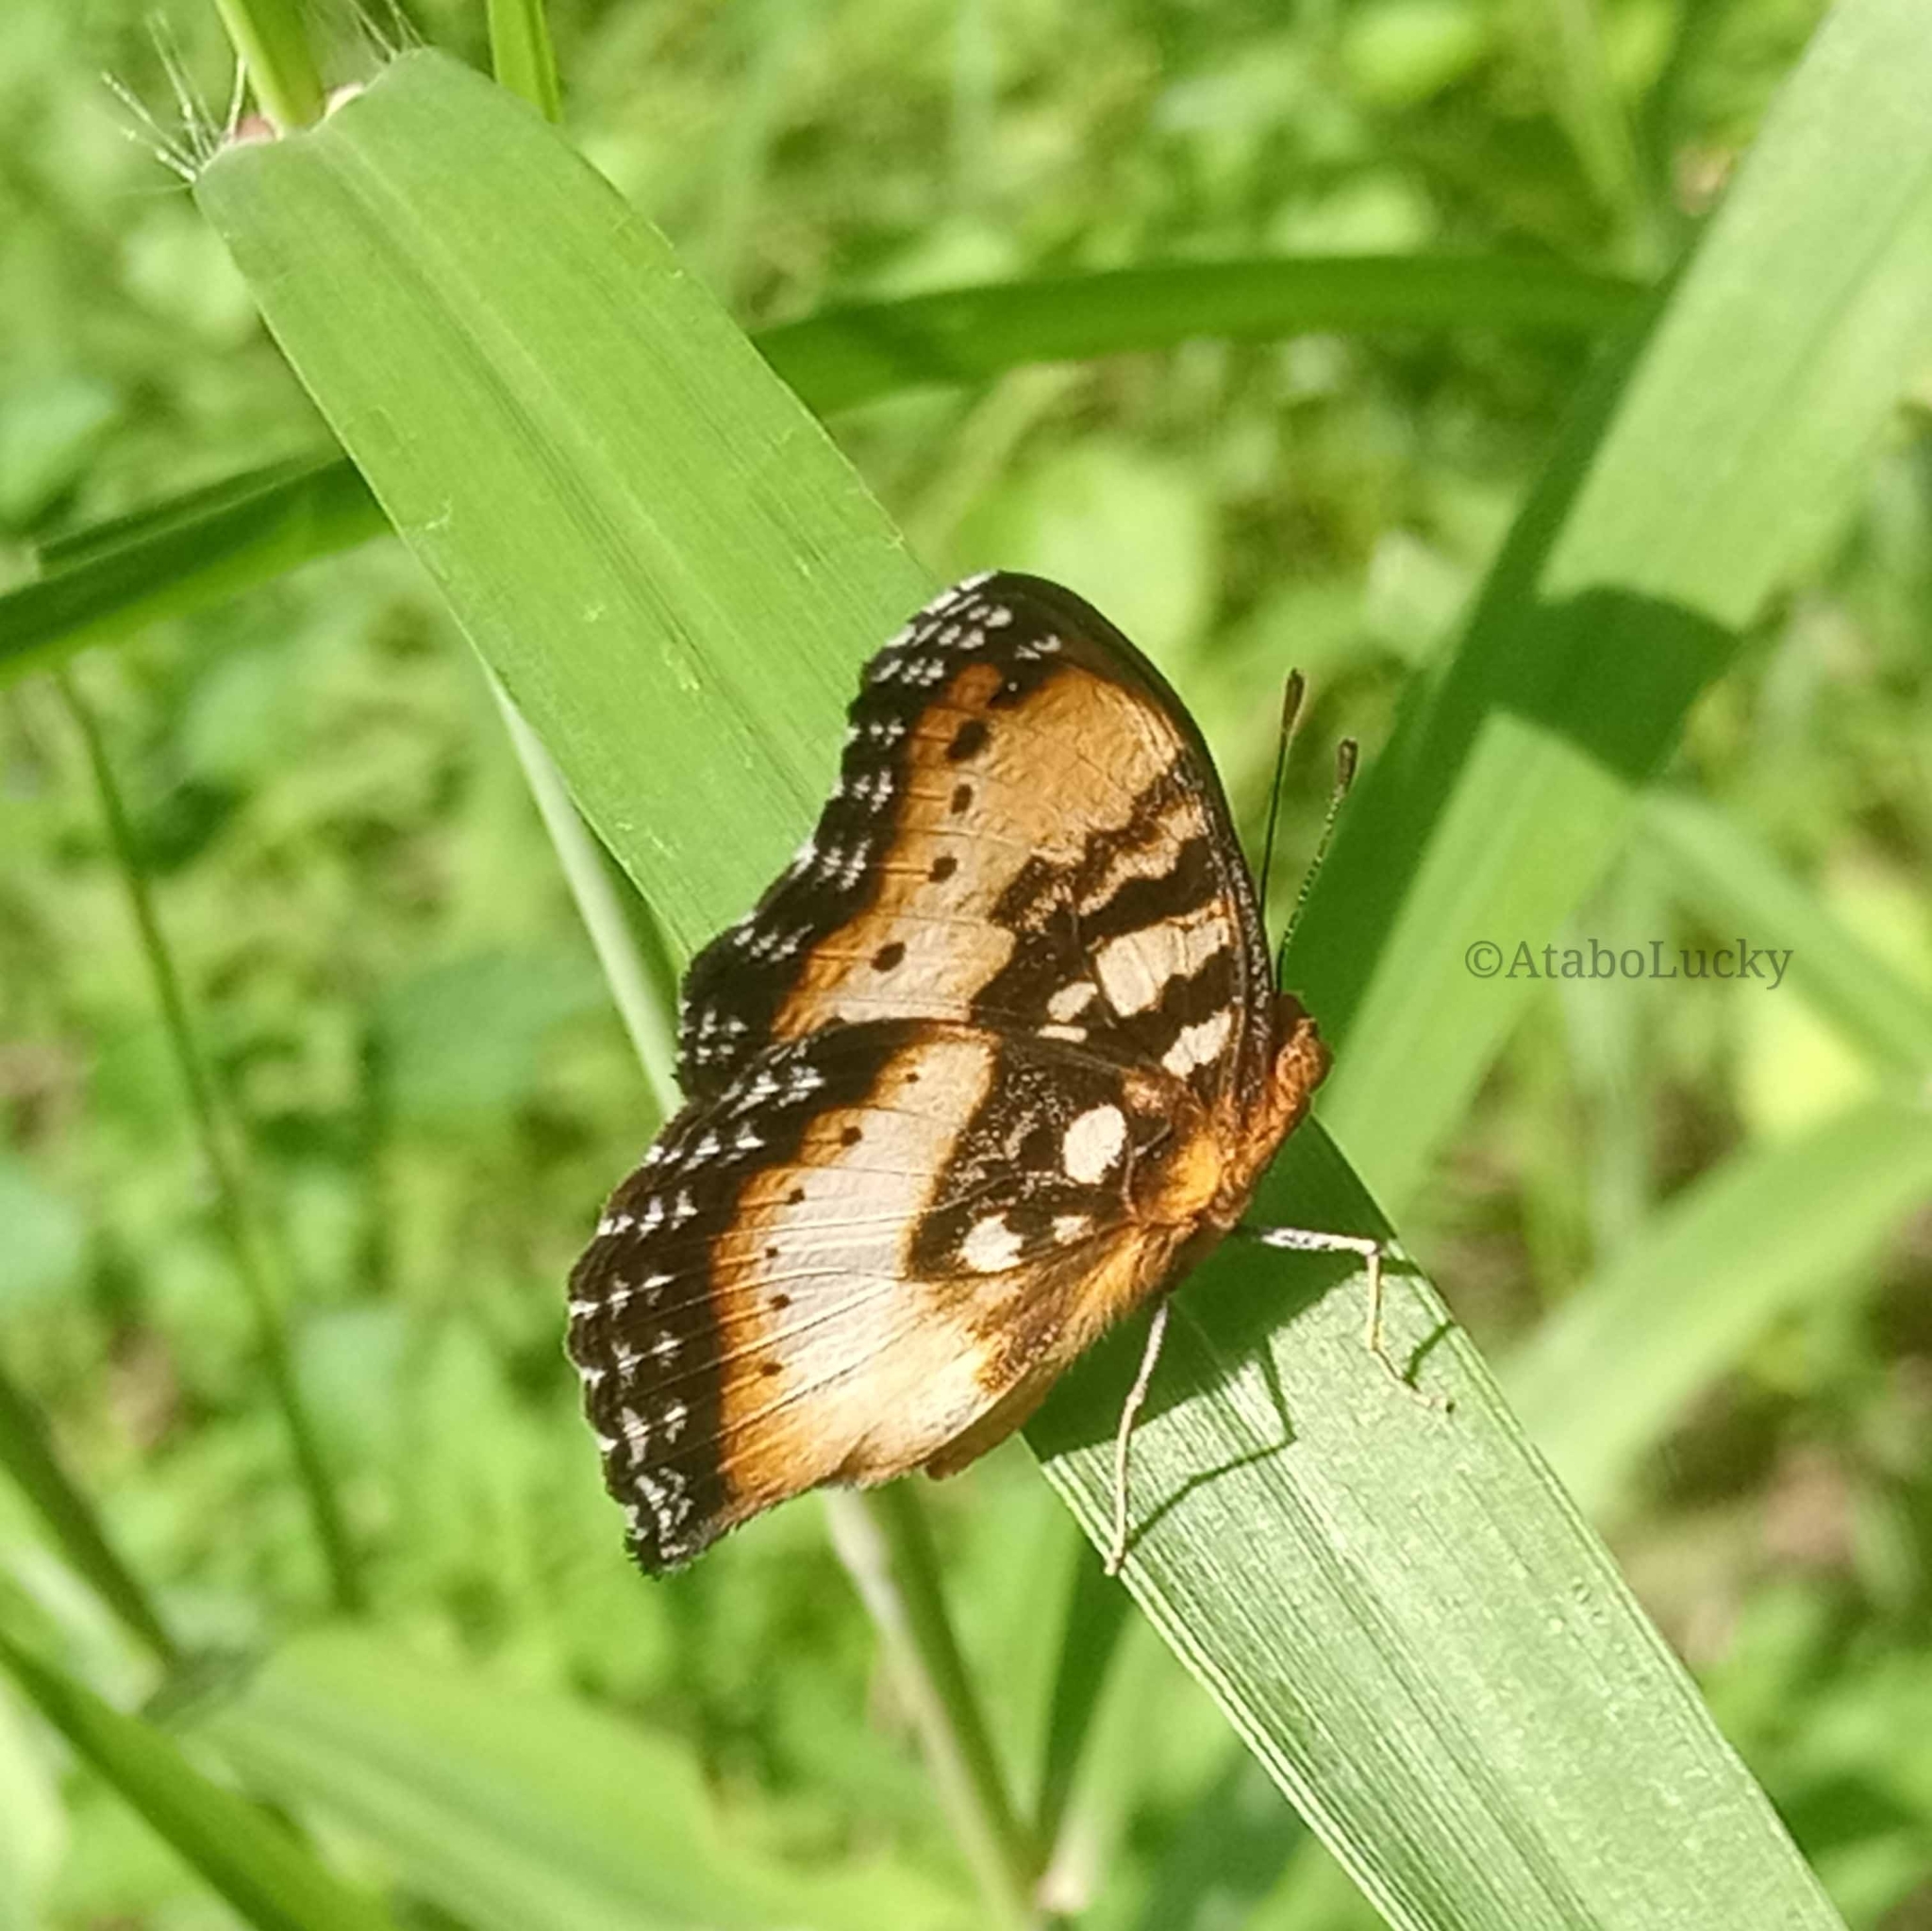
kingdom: Animalia
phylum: Arthropoda
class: Insecta
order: Lepidoptera
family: Nymphalidae
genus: Junonia
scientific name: Junonia antilope
